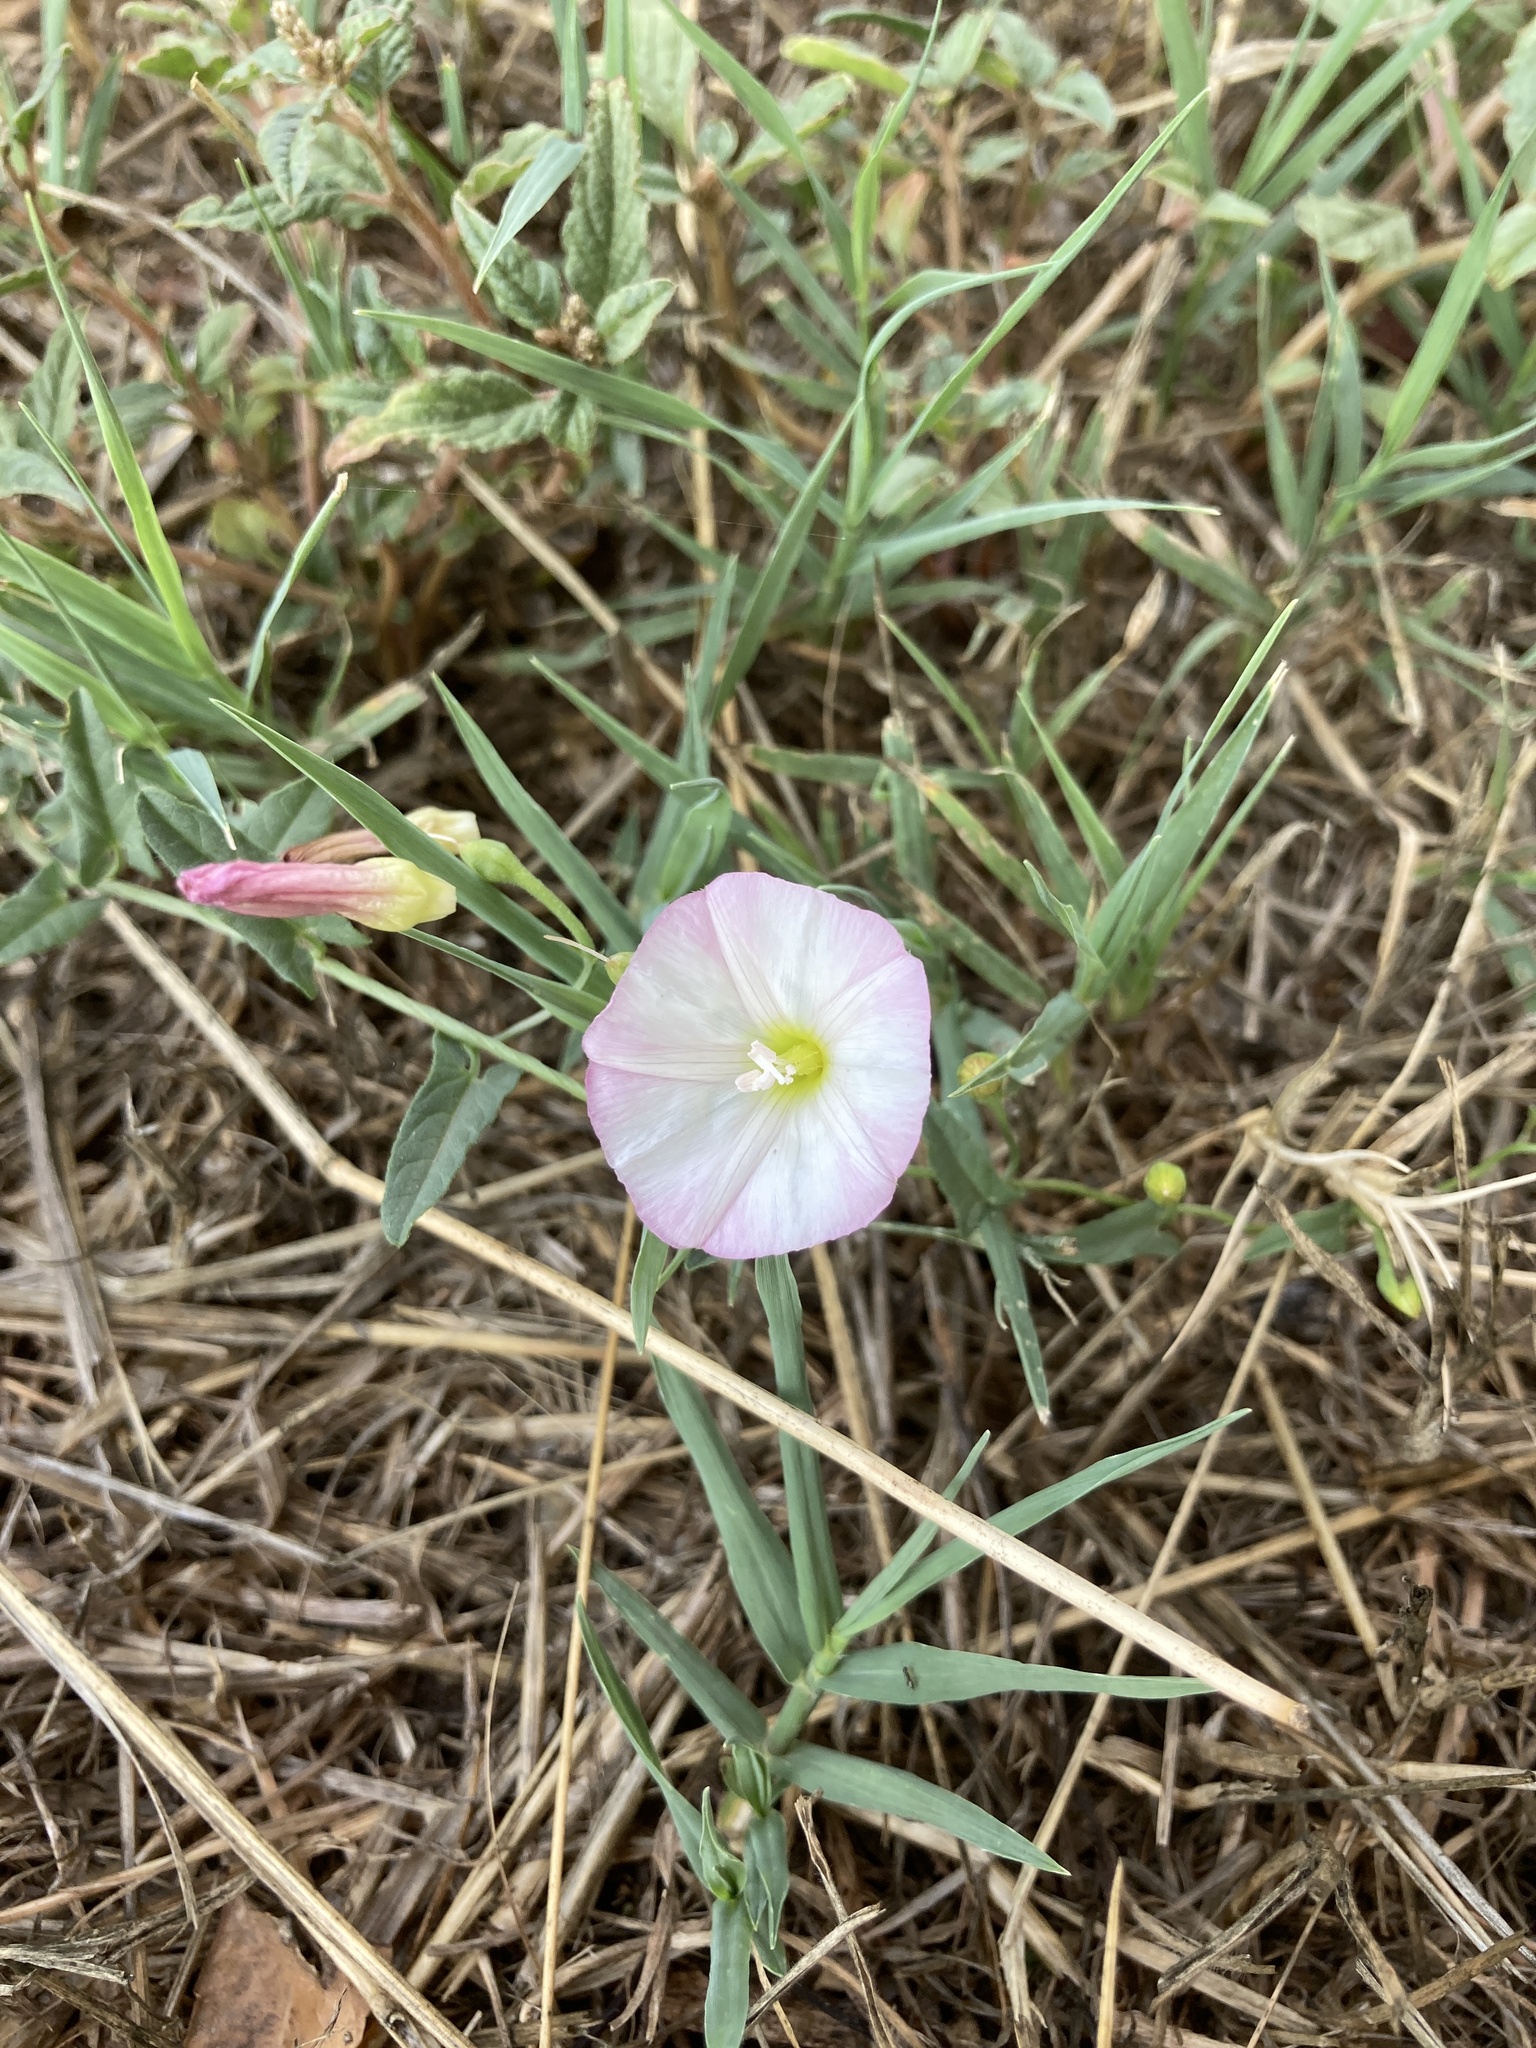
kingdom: Plantae
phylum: Tracheophyta
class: Magnoliopsida
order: Solanales
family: Convolvulaceae
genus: Convolvulus
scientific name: Convolvulus arvensis
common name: Field bindweed
